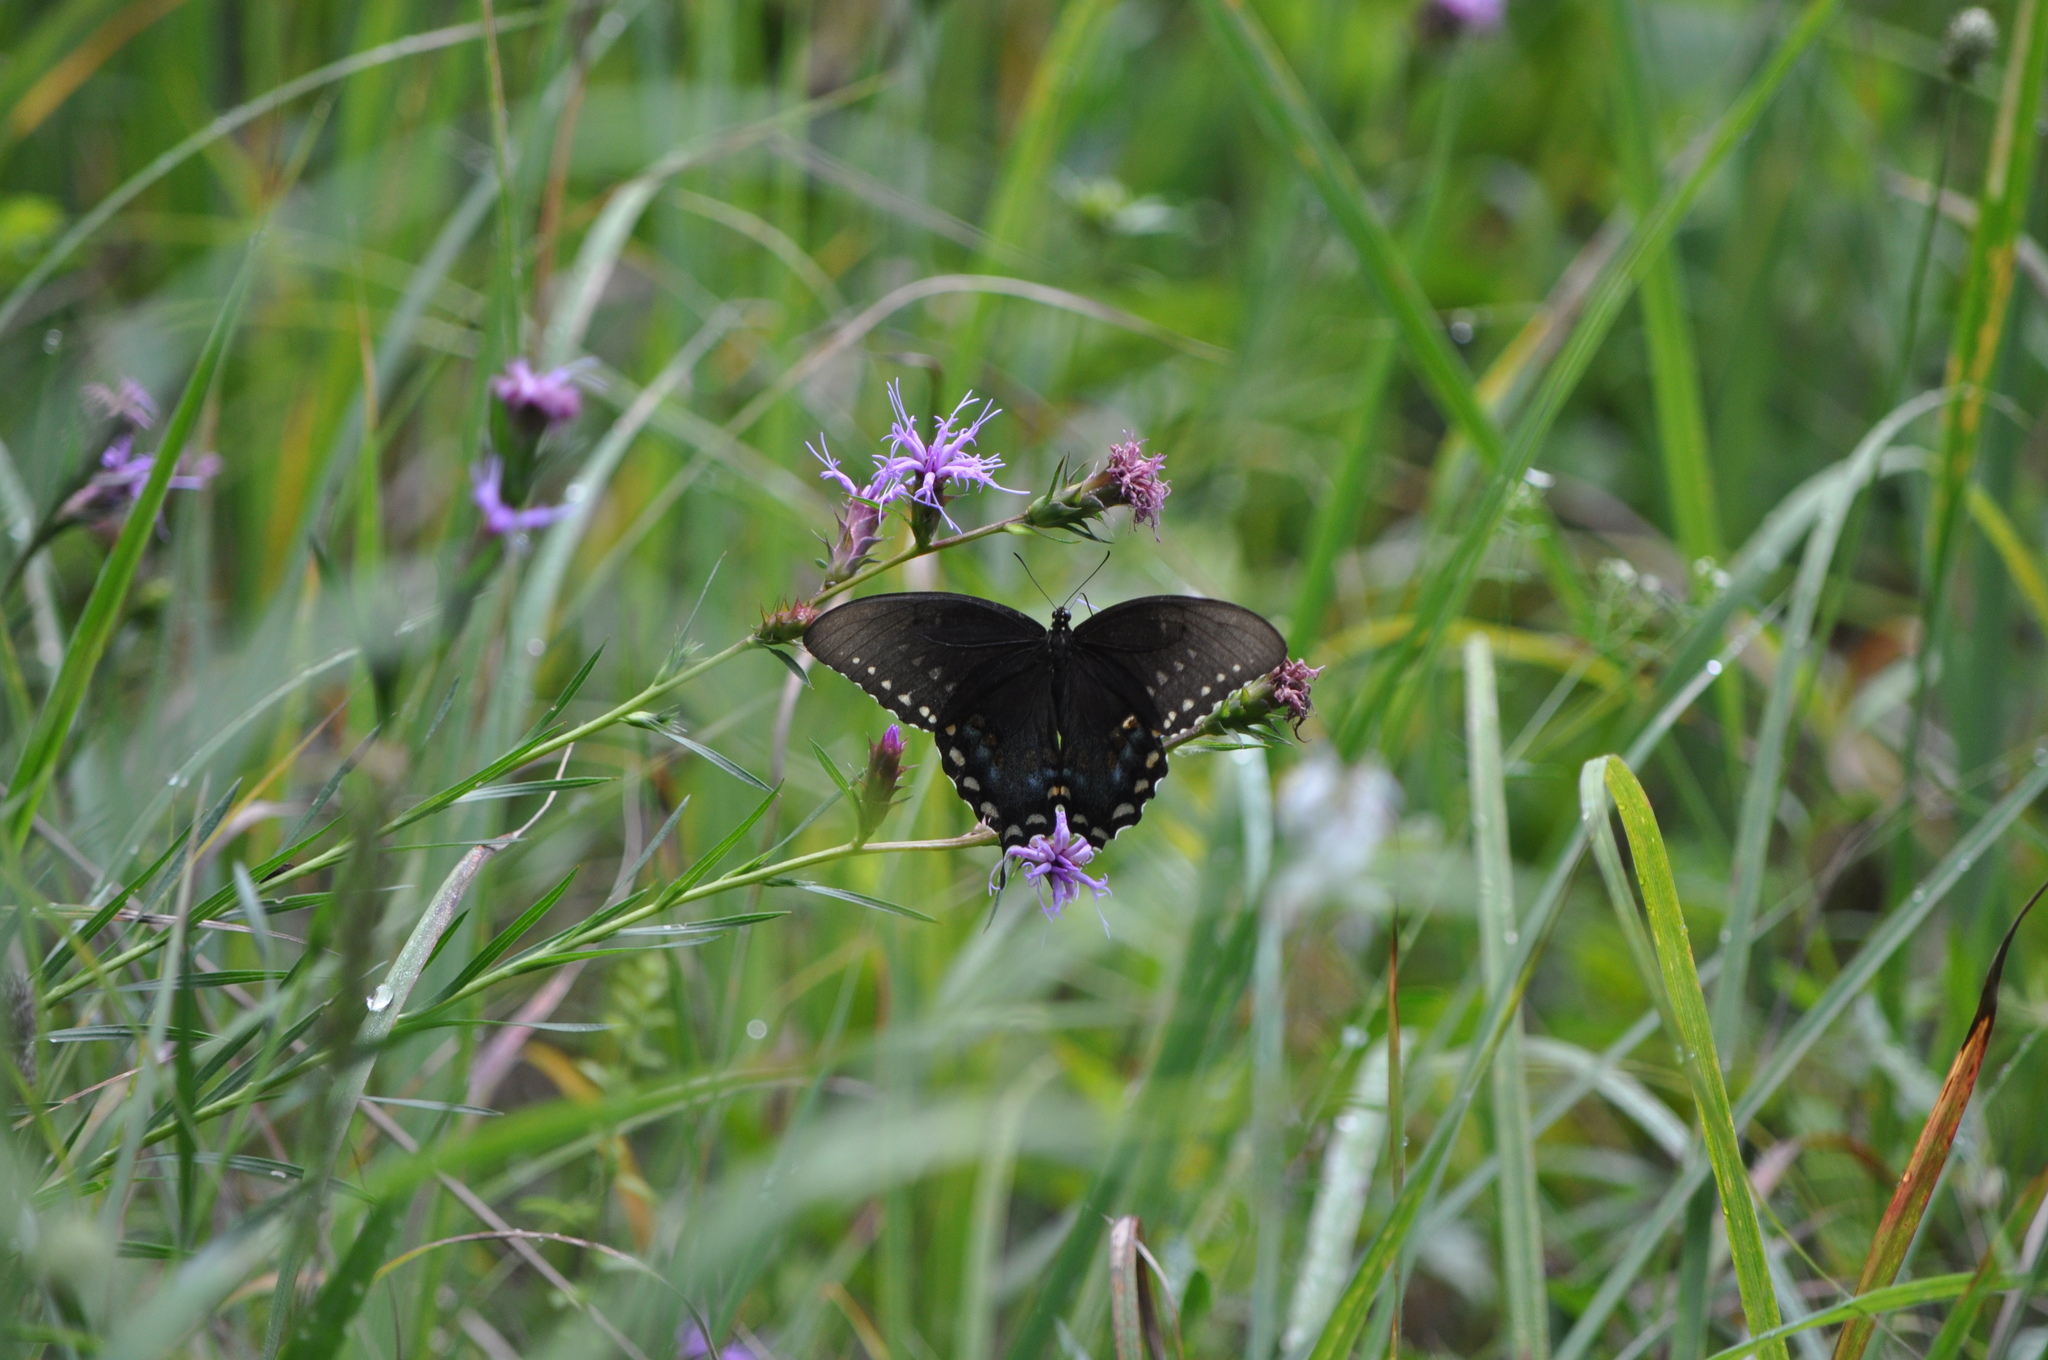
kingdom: Animalia
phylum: Arthropoda
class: Insecta
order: Lepidoptera
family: Papilionidae
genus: Papilio
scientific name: Papilio troilus
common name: Spicebush swallowtail
